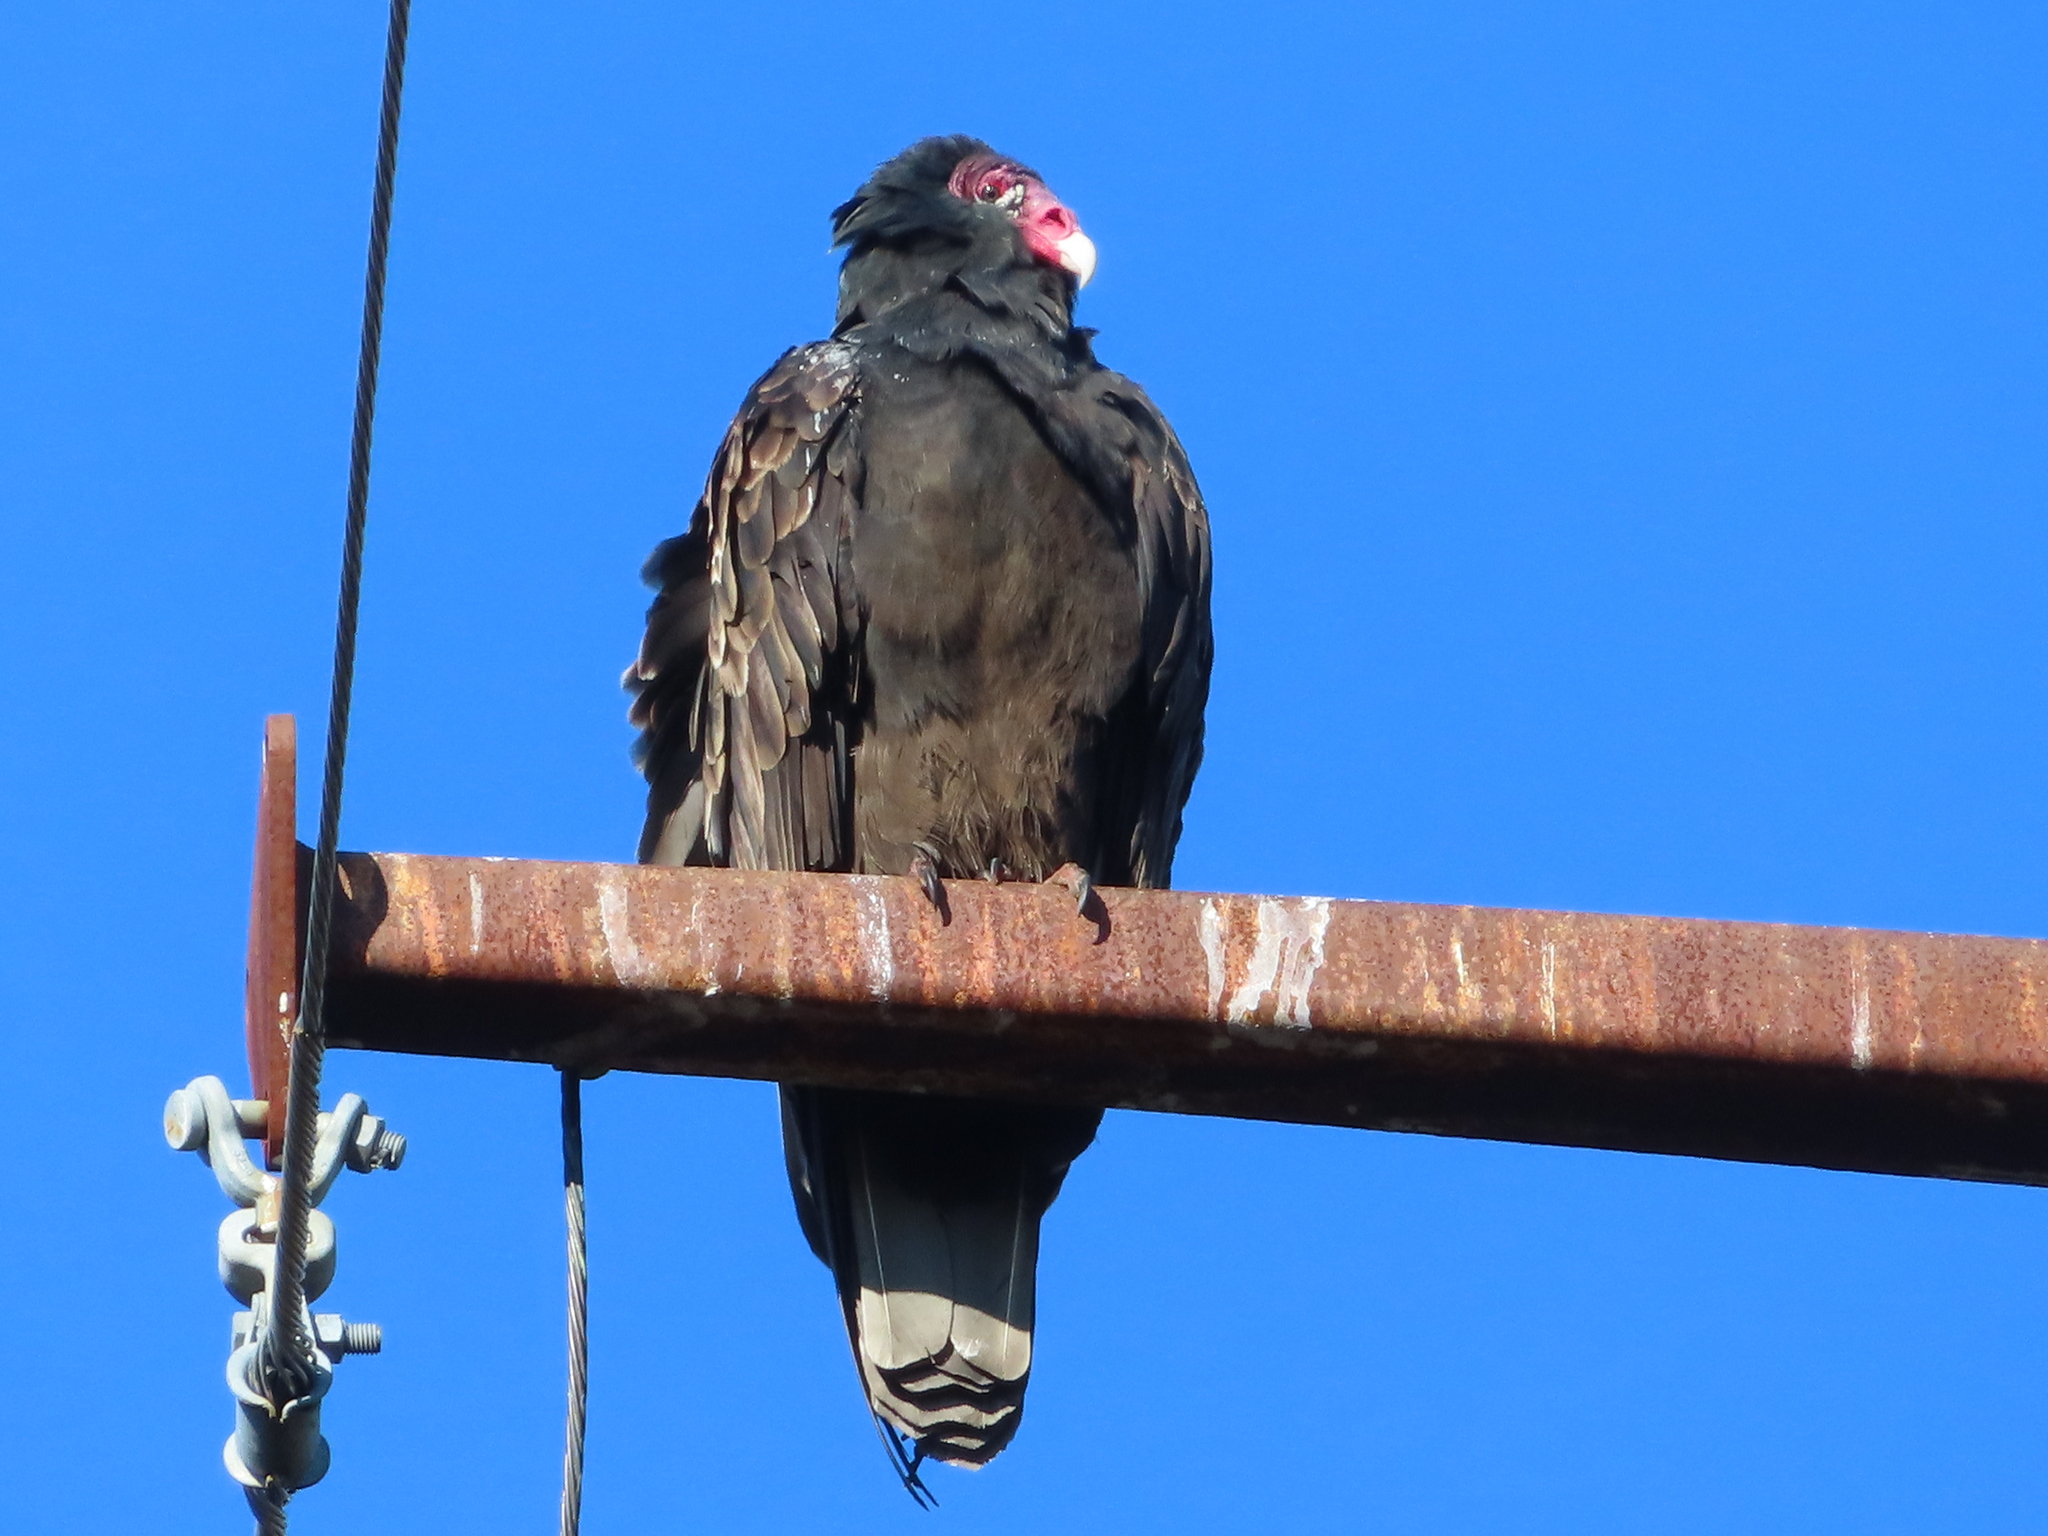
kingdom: Animalia
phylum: Chordata
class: Aves
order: Accipitriformes
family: Cathartidae
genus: Cathartes
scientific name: Cathartes aura
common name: Turkey vulture
